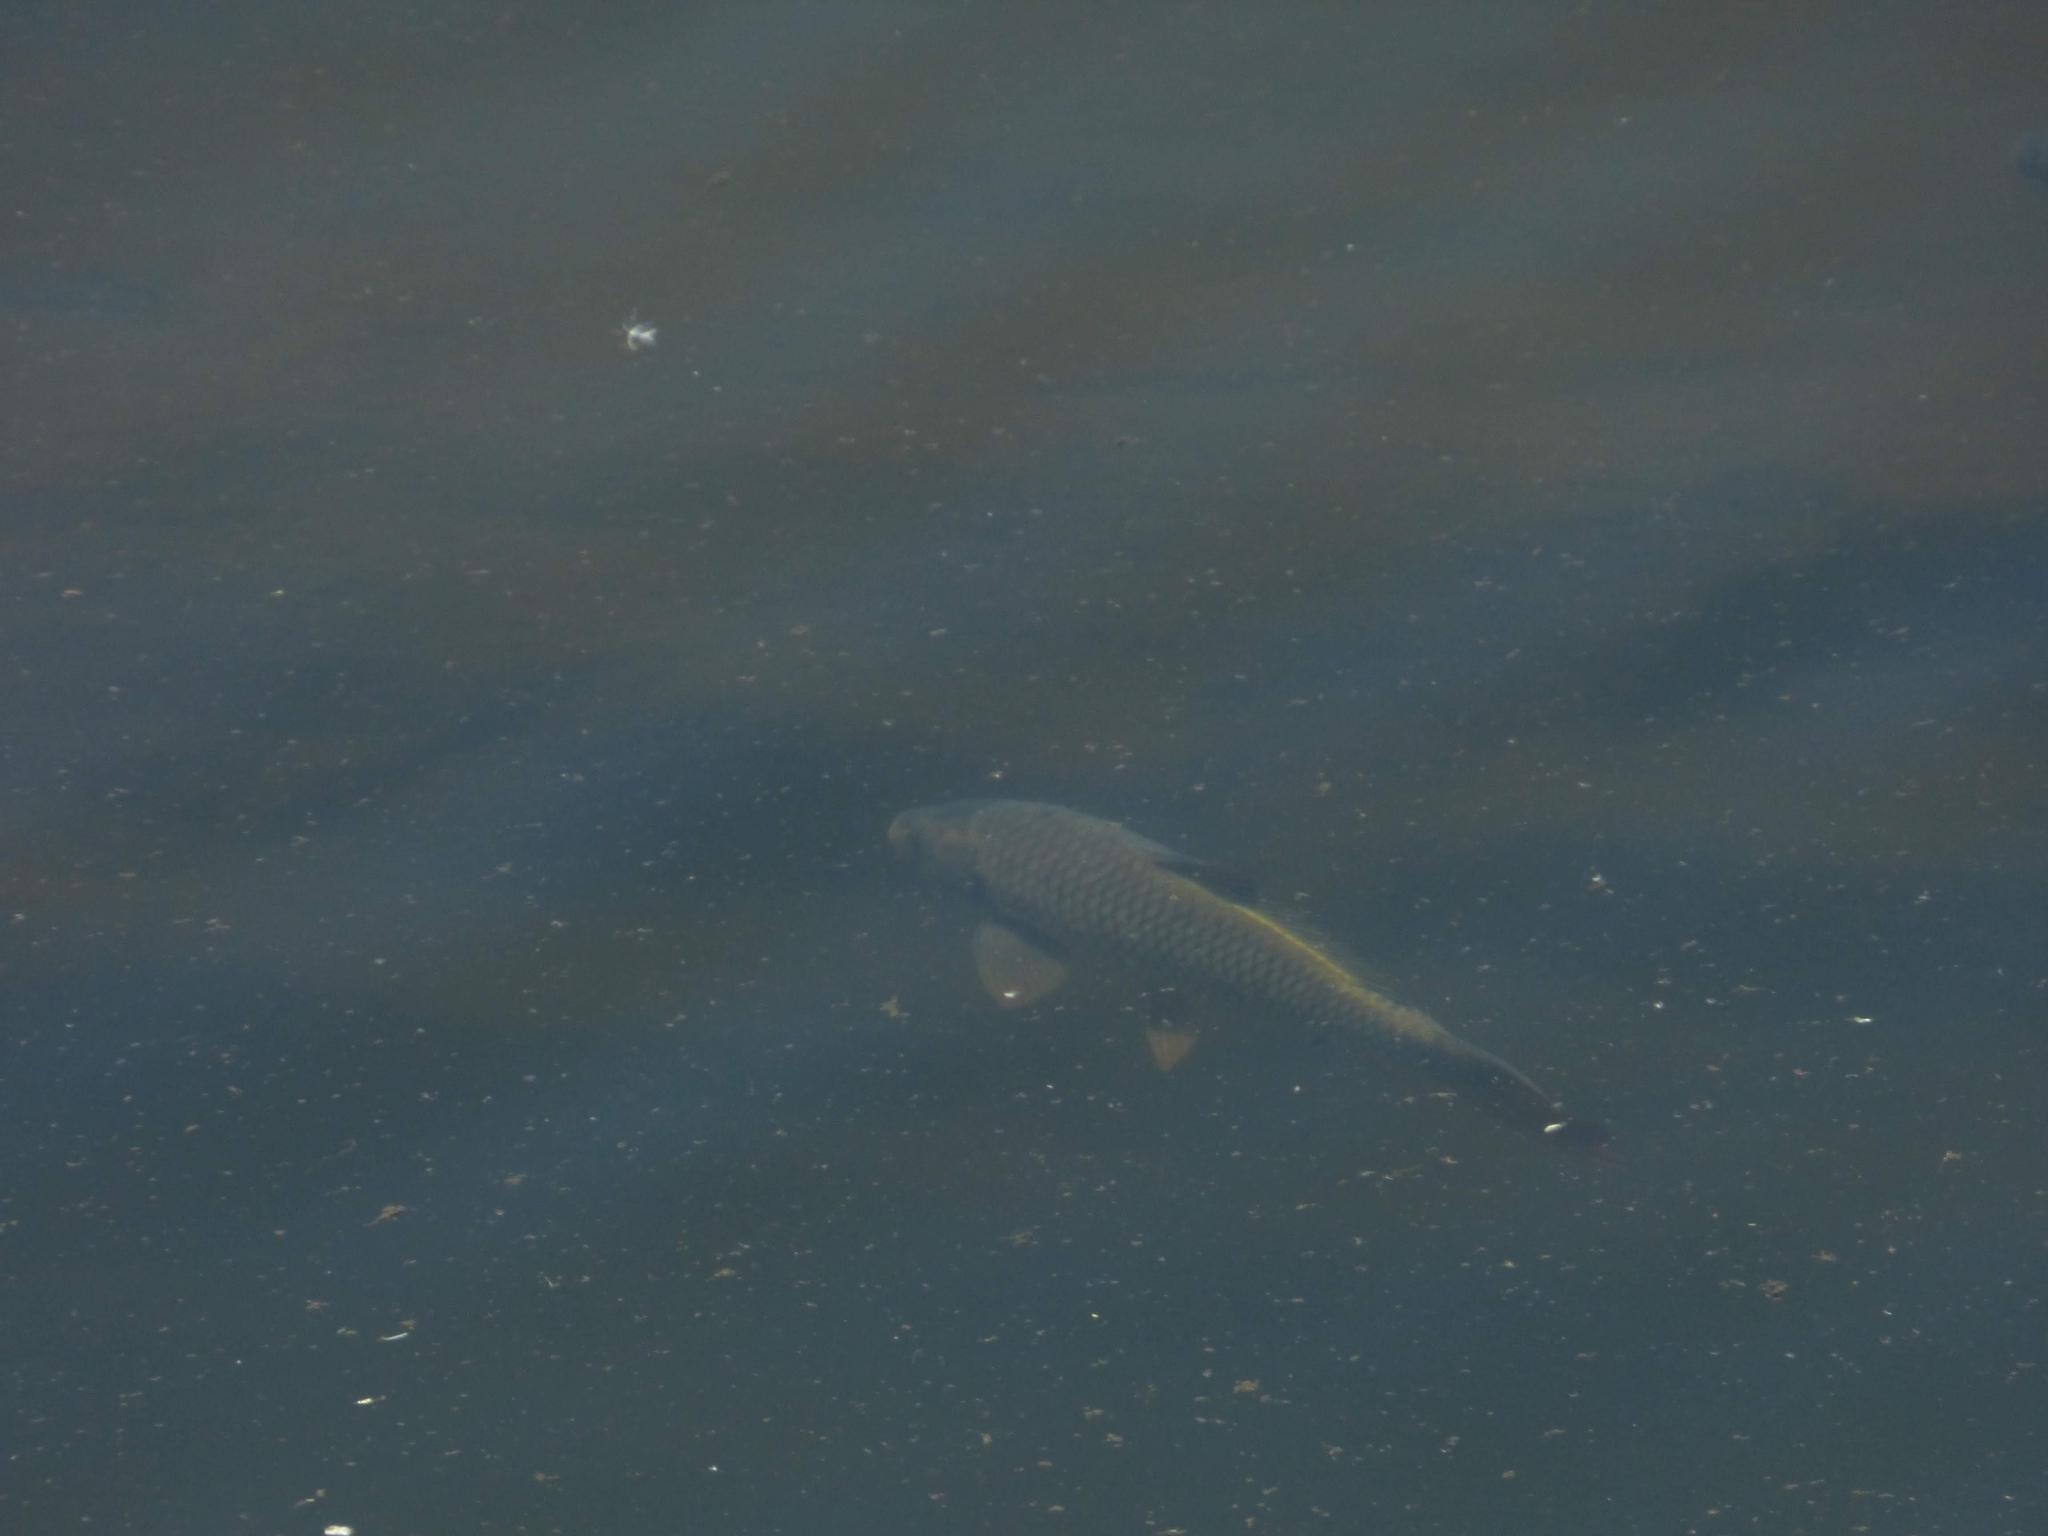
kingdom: Animalia
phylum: Chordata
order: Cypriniformes
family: Cyprinidae
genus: Cyprinus
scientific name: Cyprinus carpio
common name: Common carp
